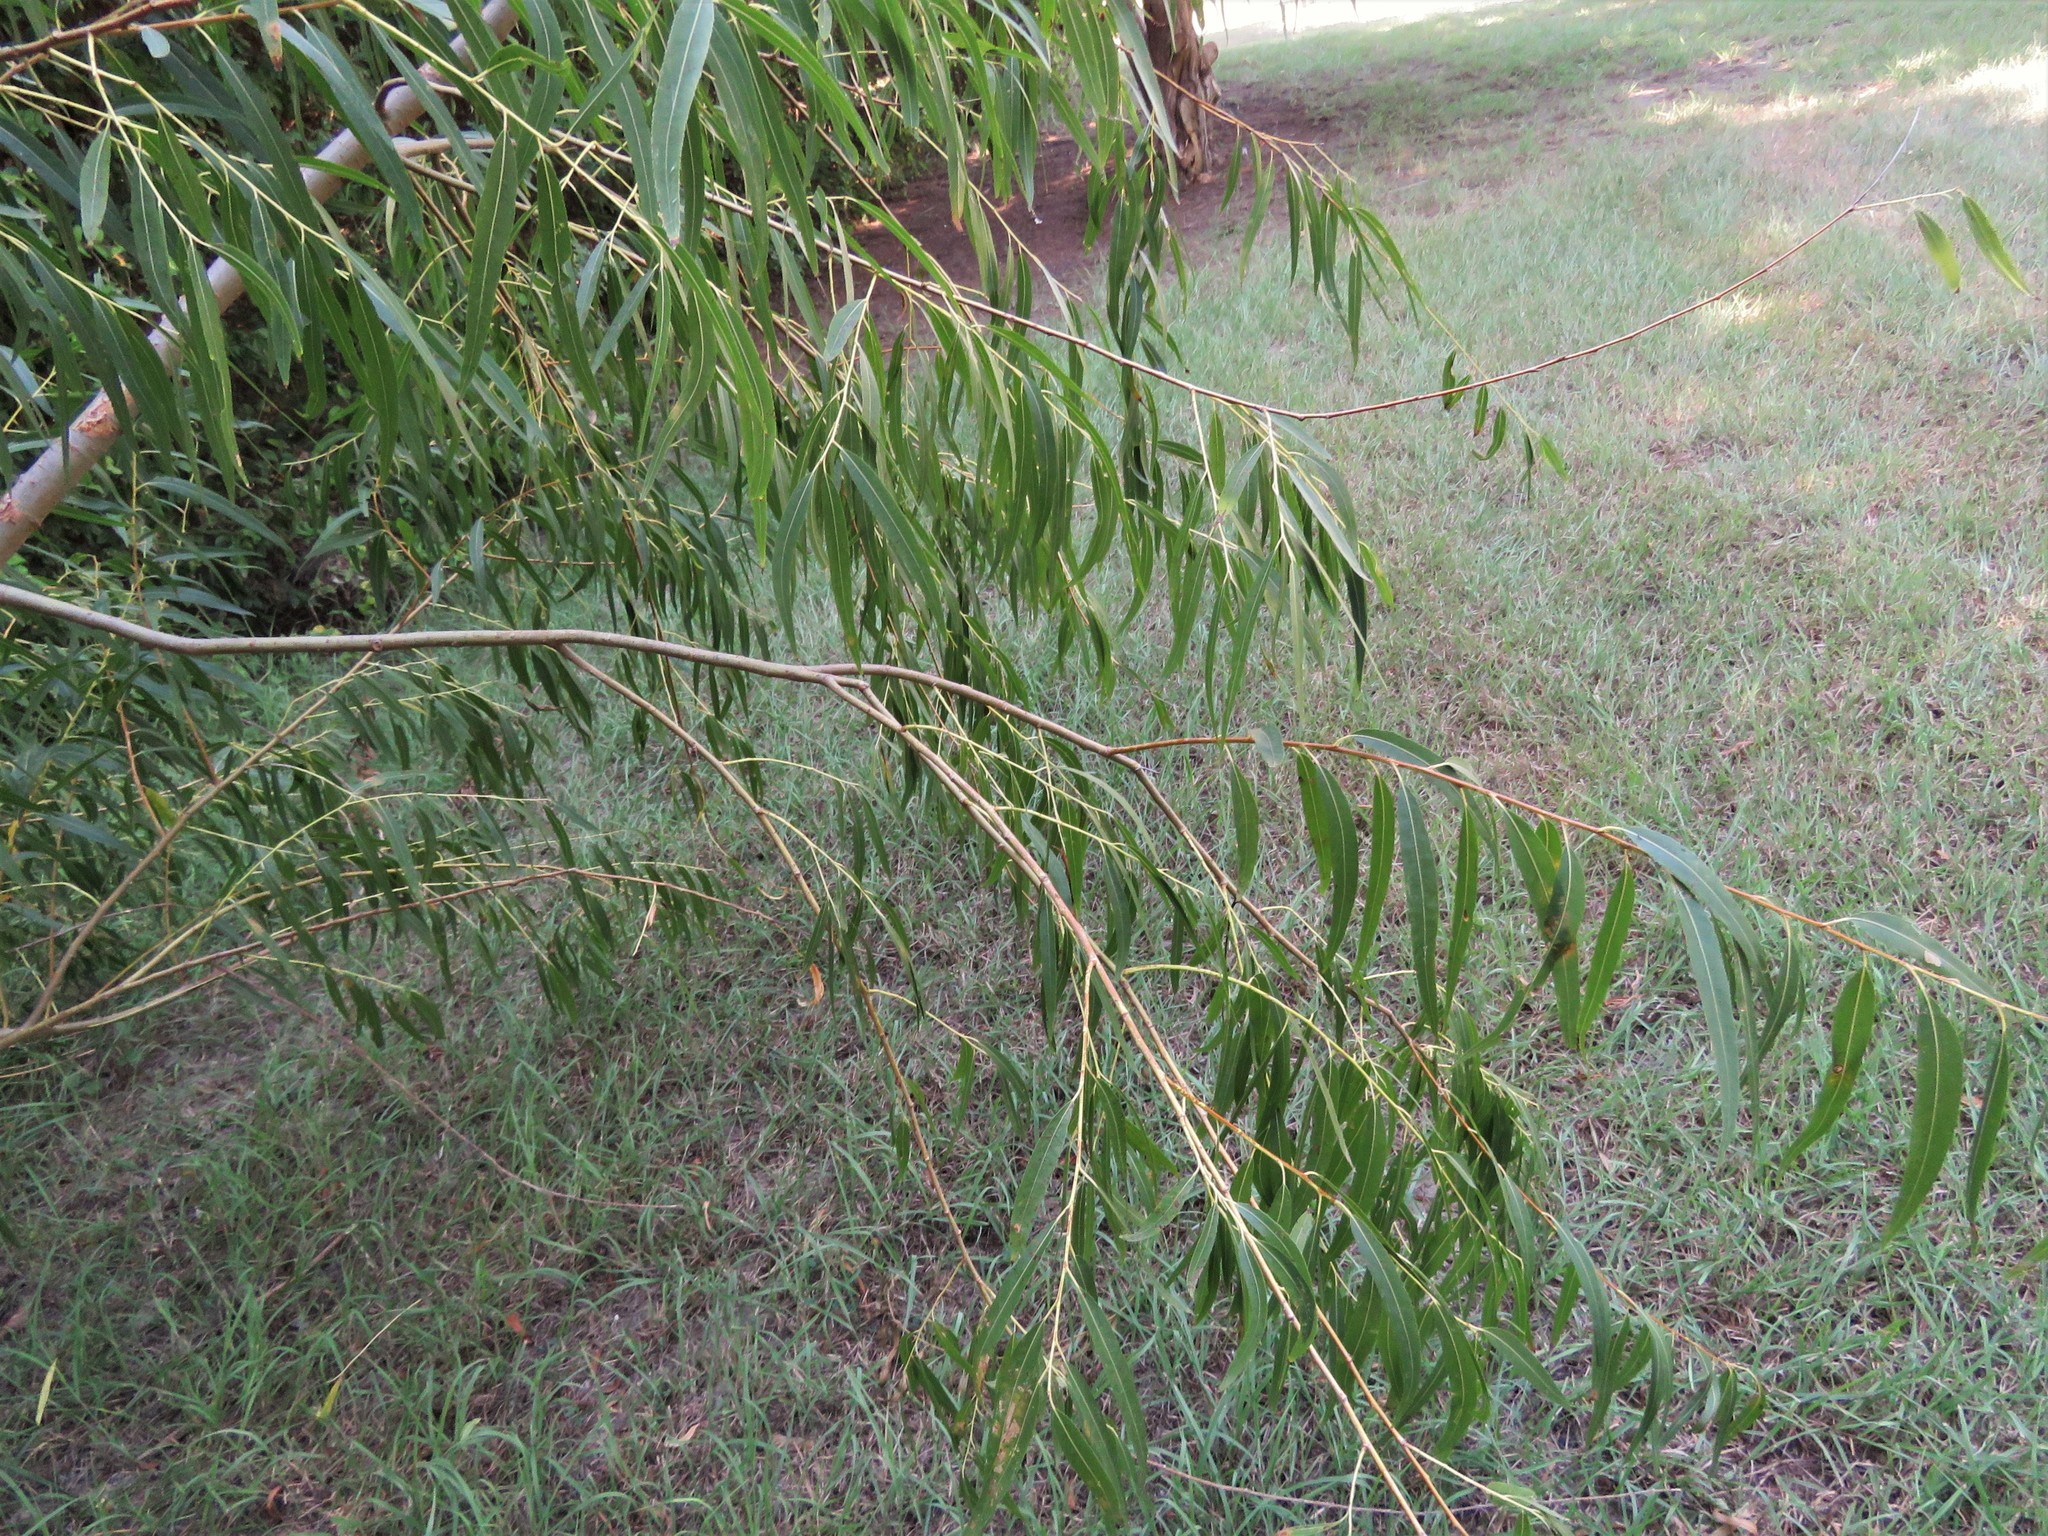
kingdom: Plantae
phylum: Tracheophyta
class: Magnoliopsida
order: Malpighiales
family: Salicaceae
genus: Salix
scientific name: Salix nigra
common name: Black willow
